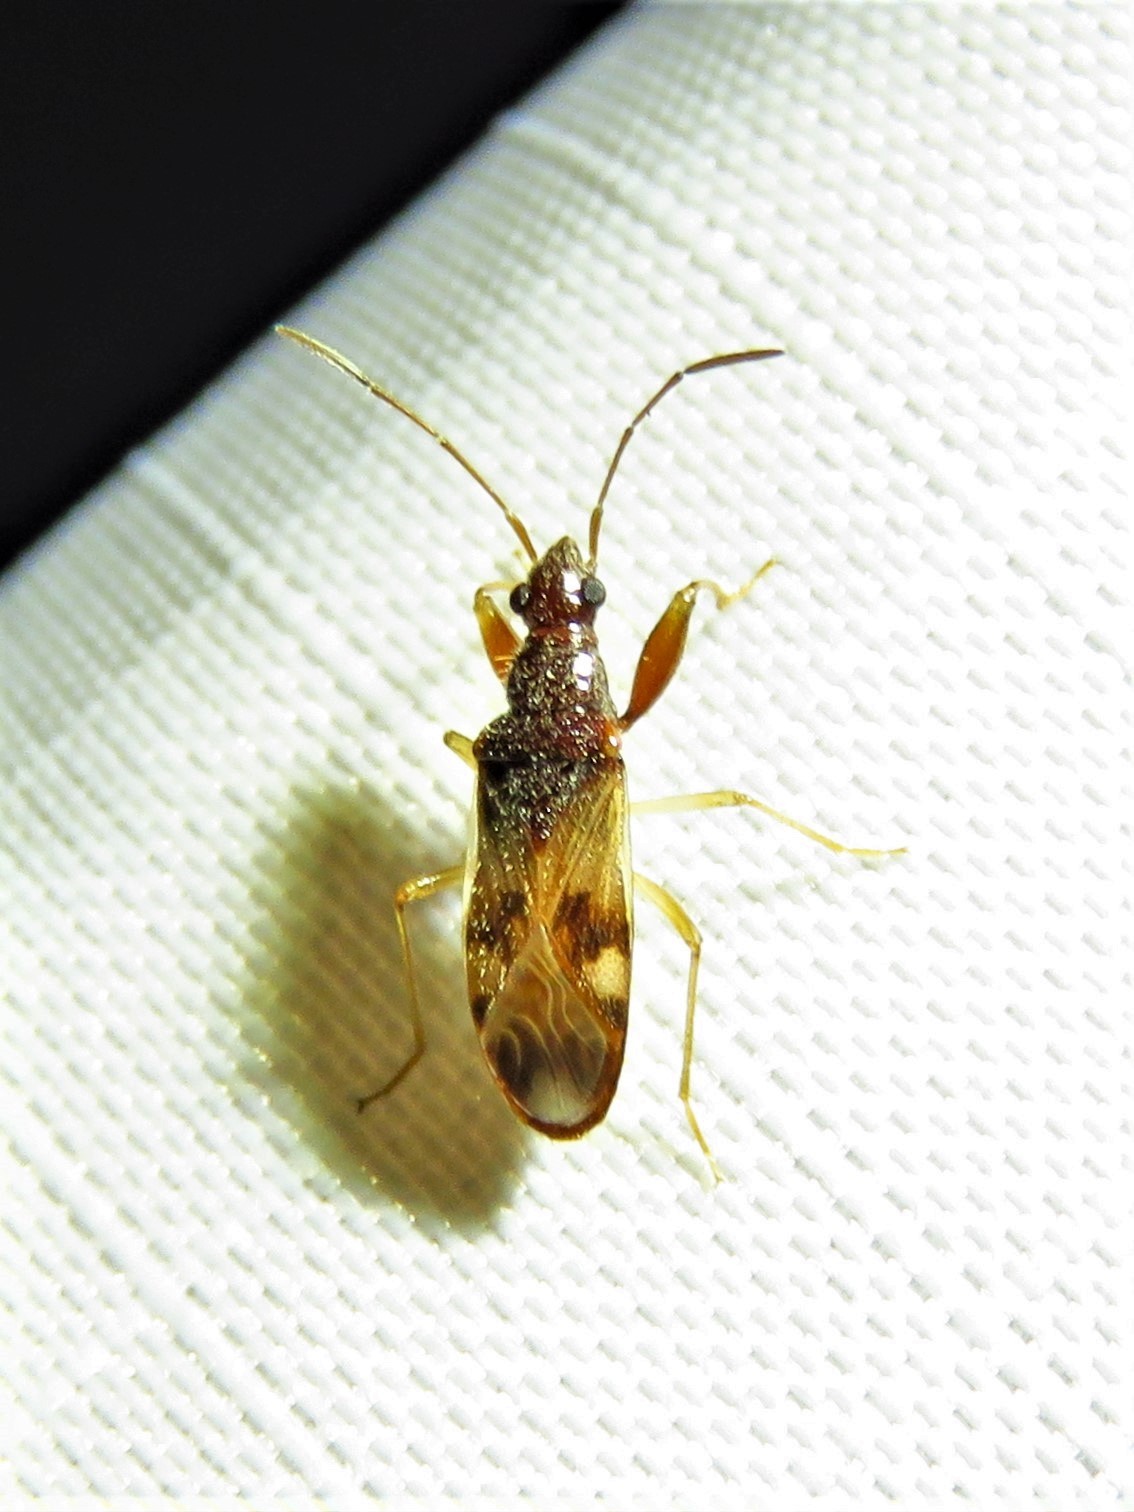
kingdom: Animalia
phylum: Arthropoda
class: Insecta
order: Hemiptera
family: Rhyparochromidae
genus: Pseudopamera
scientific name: Pseudopamera nitidula
